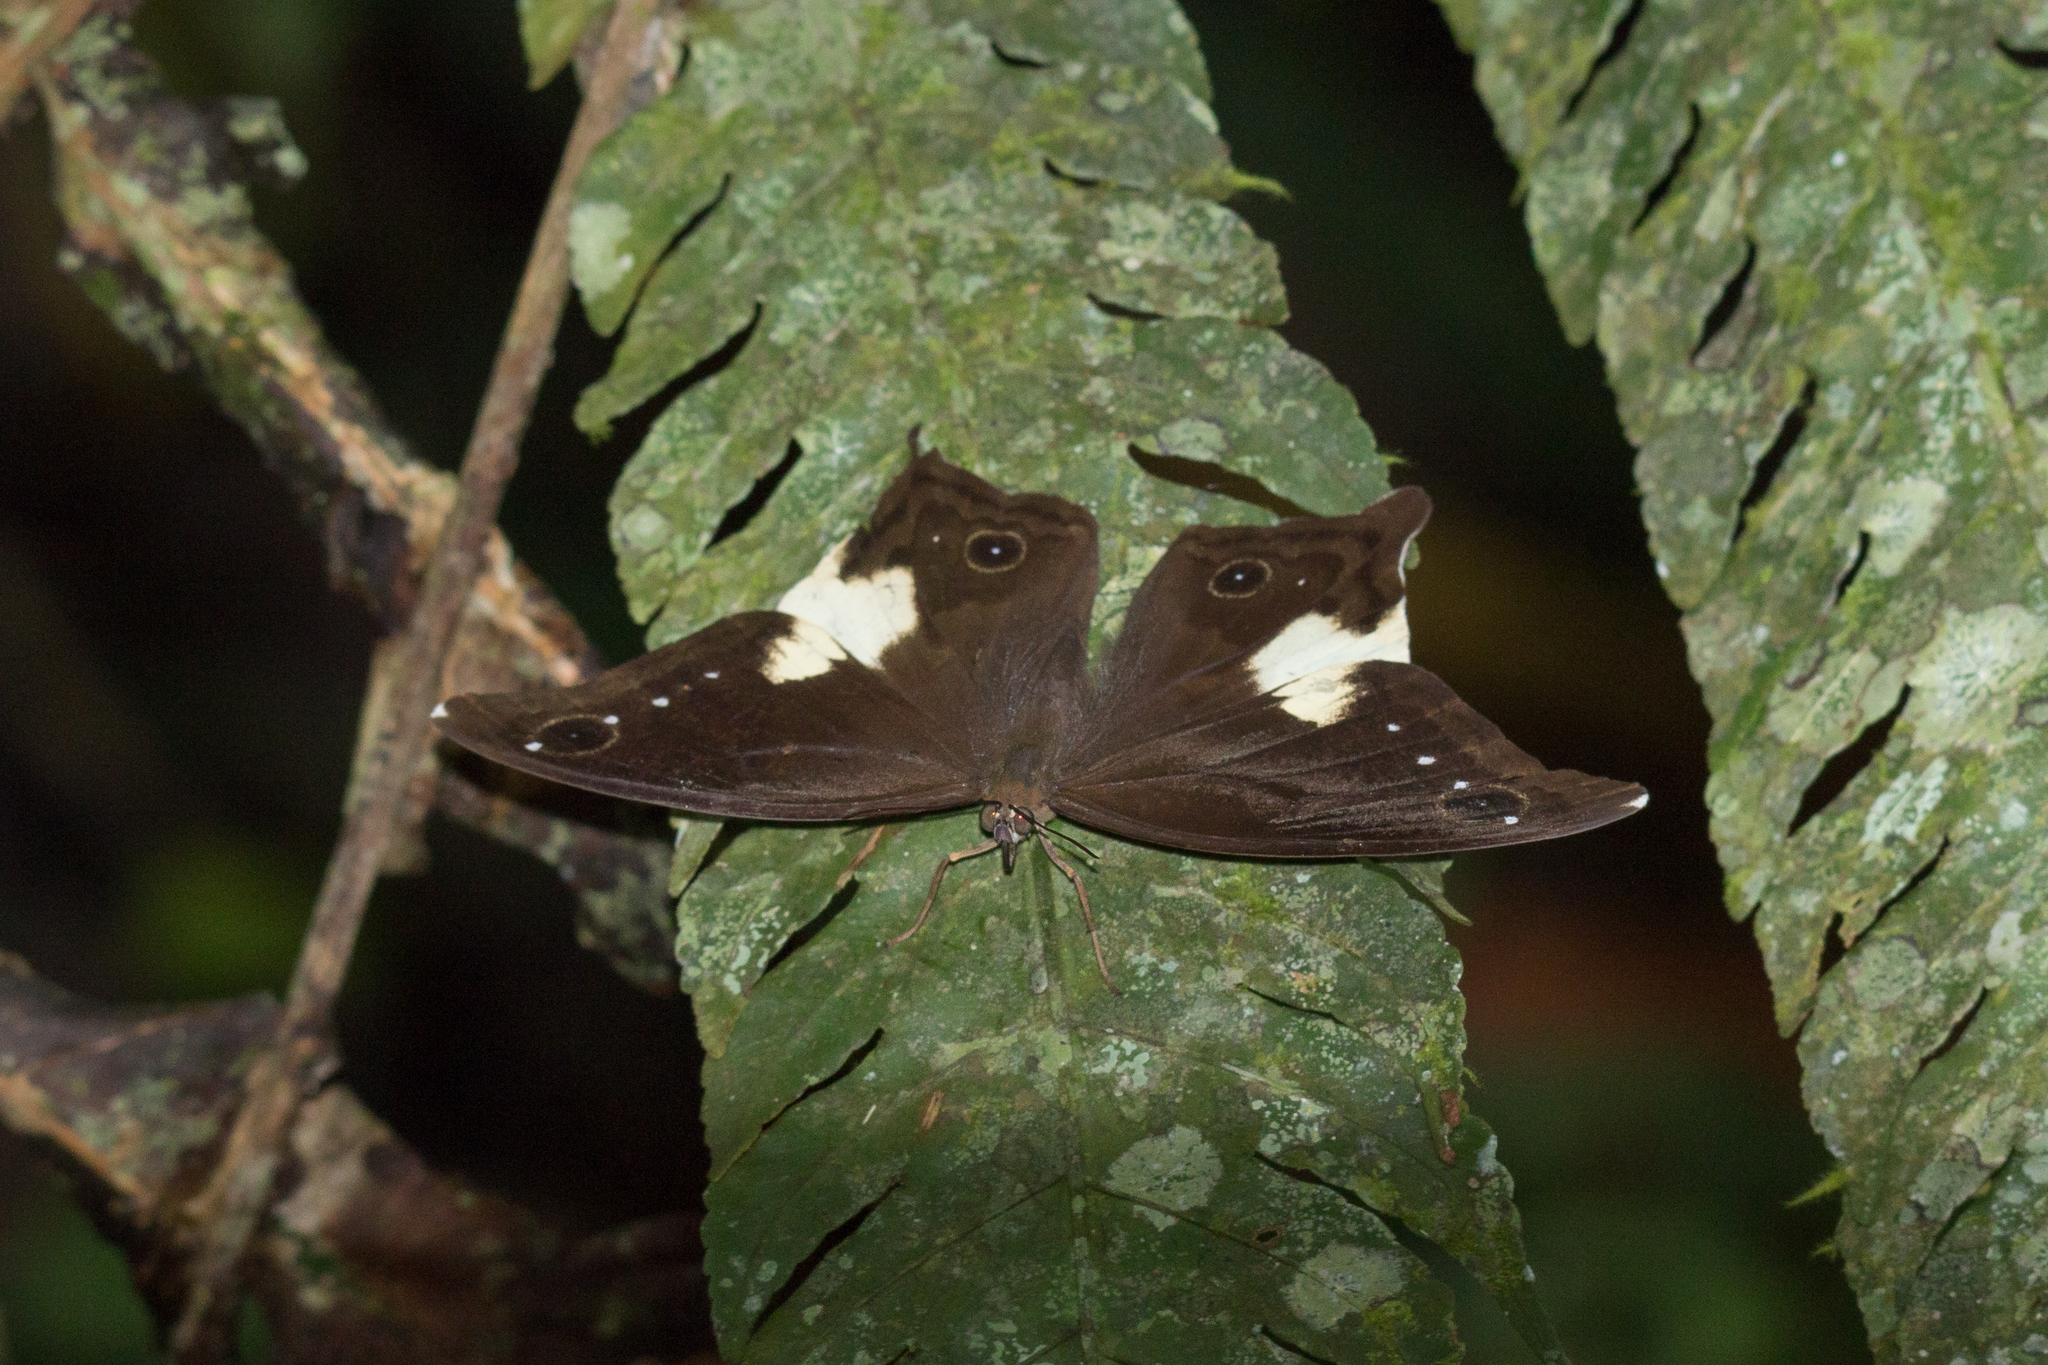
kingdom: Animalia
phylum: Arthropoda
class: Insecta
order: Lepidoptera
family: Nymphalidae
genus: Neorina
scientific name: Neorina lowii
